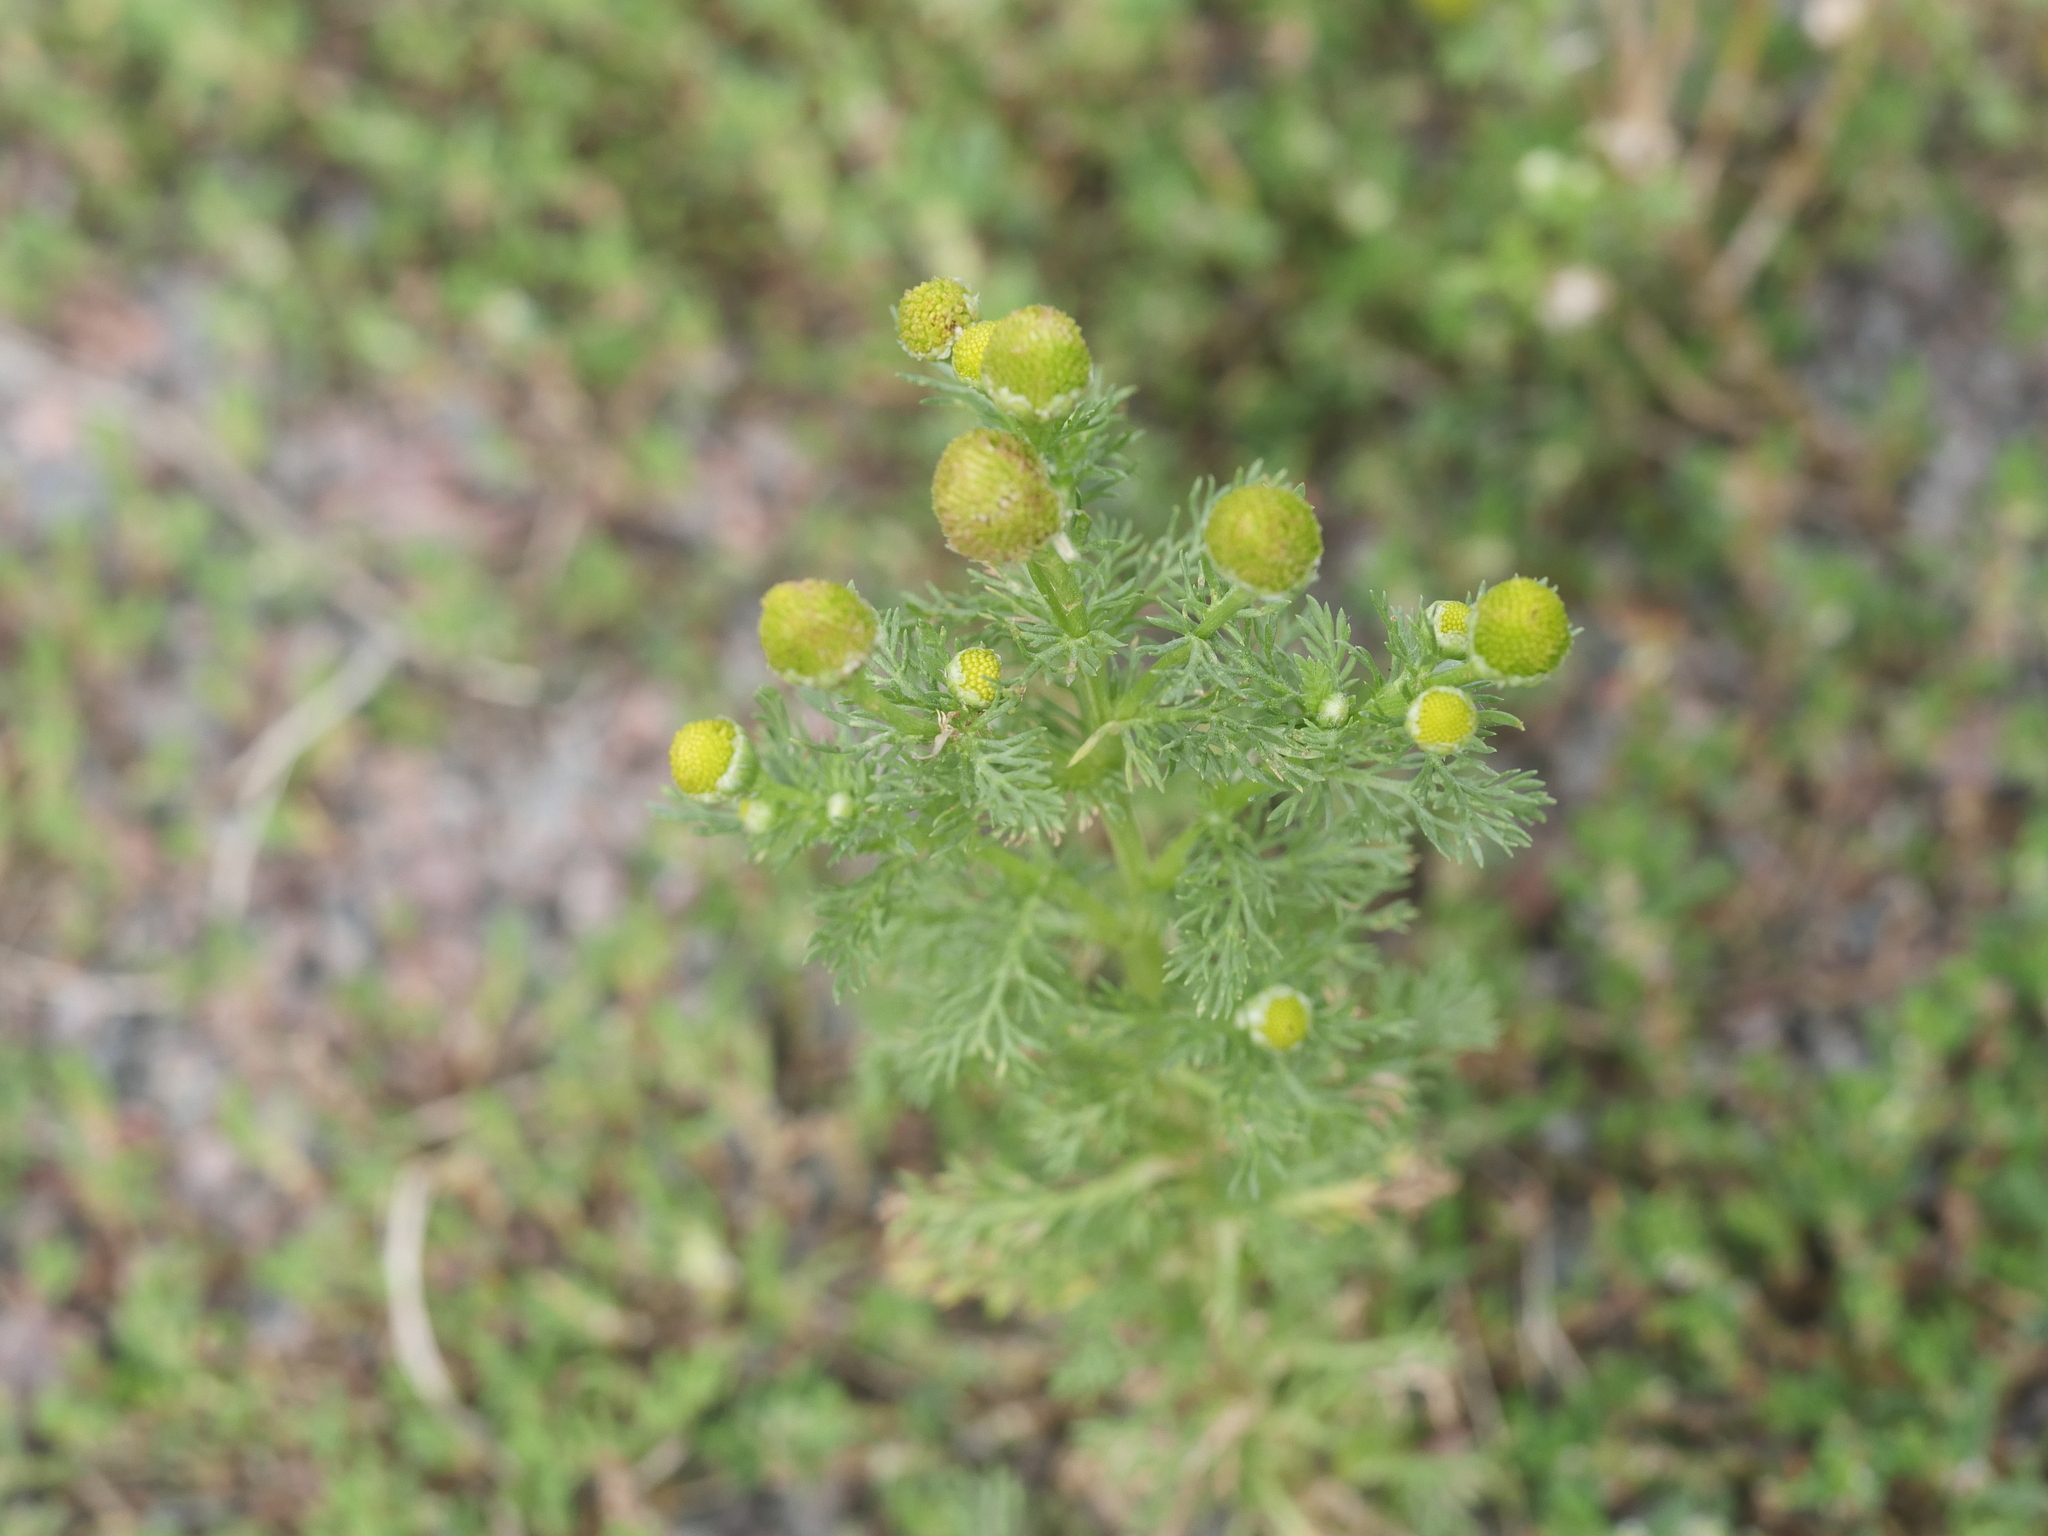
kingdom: Plantae
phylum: Tracheophyta
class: Magnoliopsida
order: Asterales
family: Asteraceae
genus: Matricaria
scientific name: Matricaria discoidea
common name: Disc mayweed
